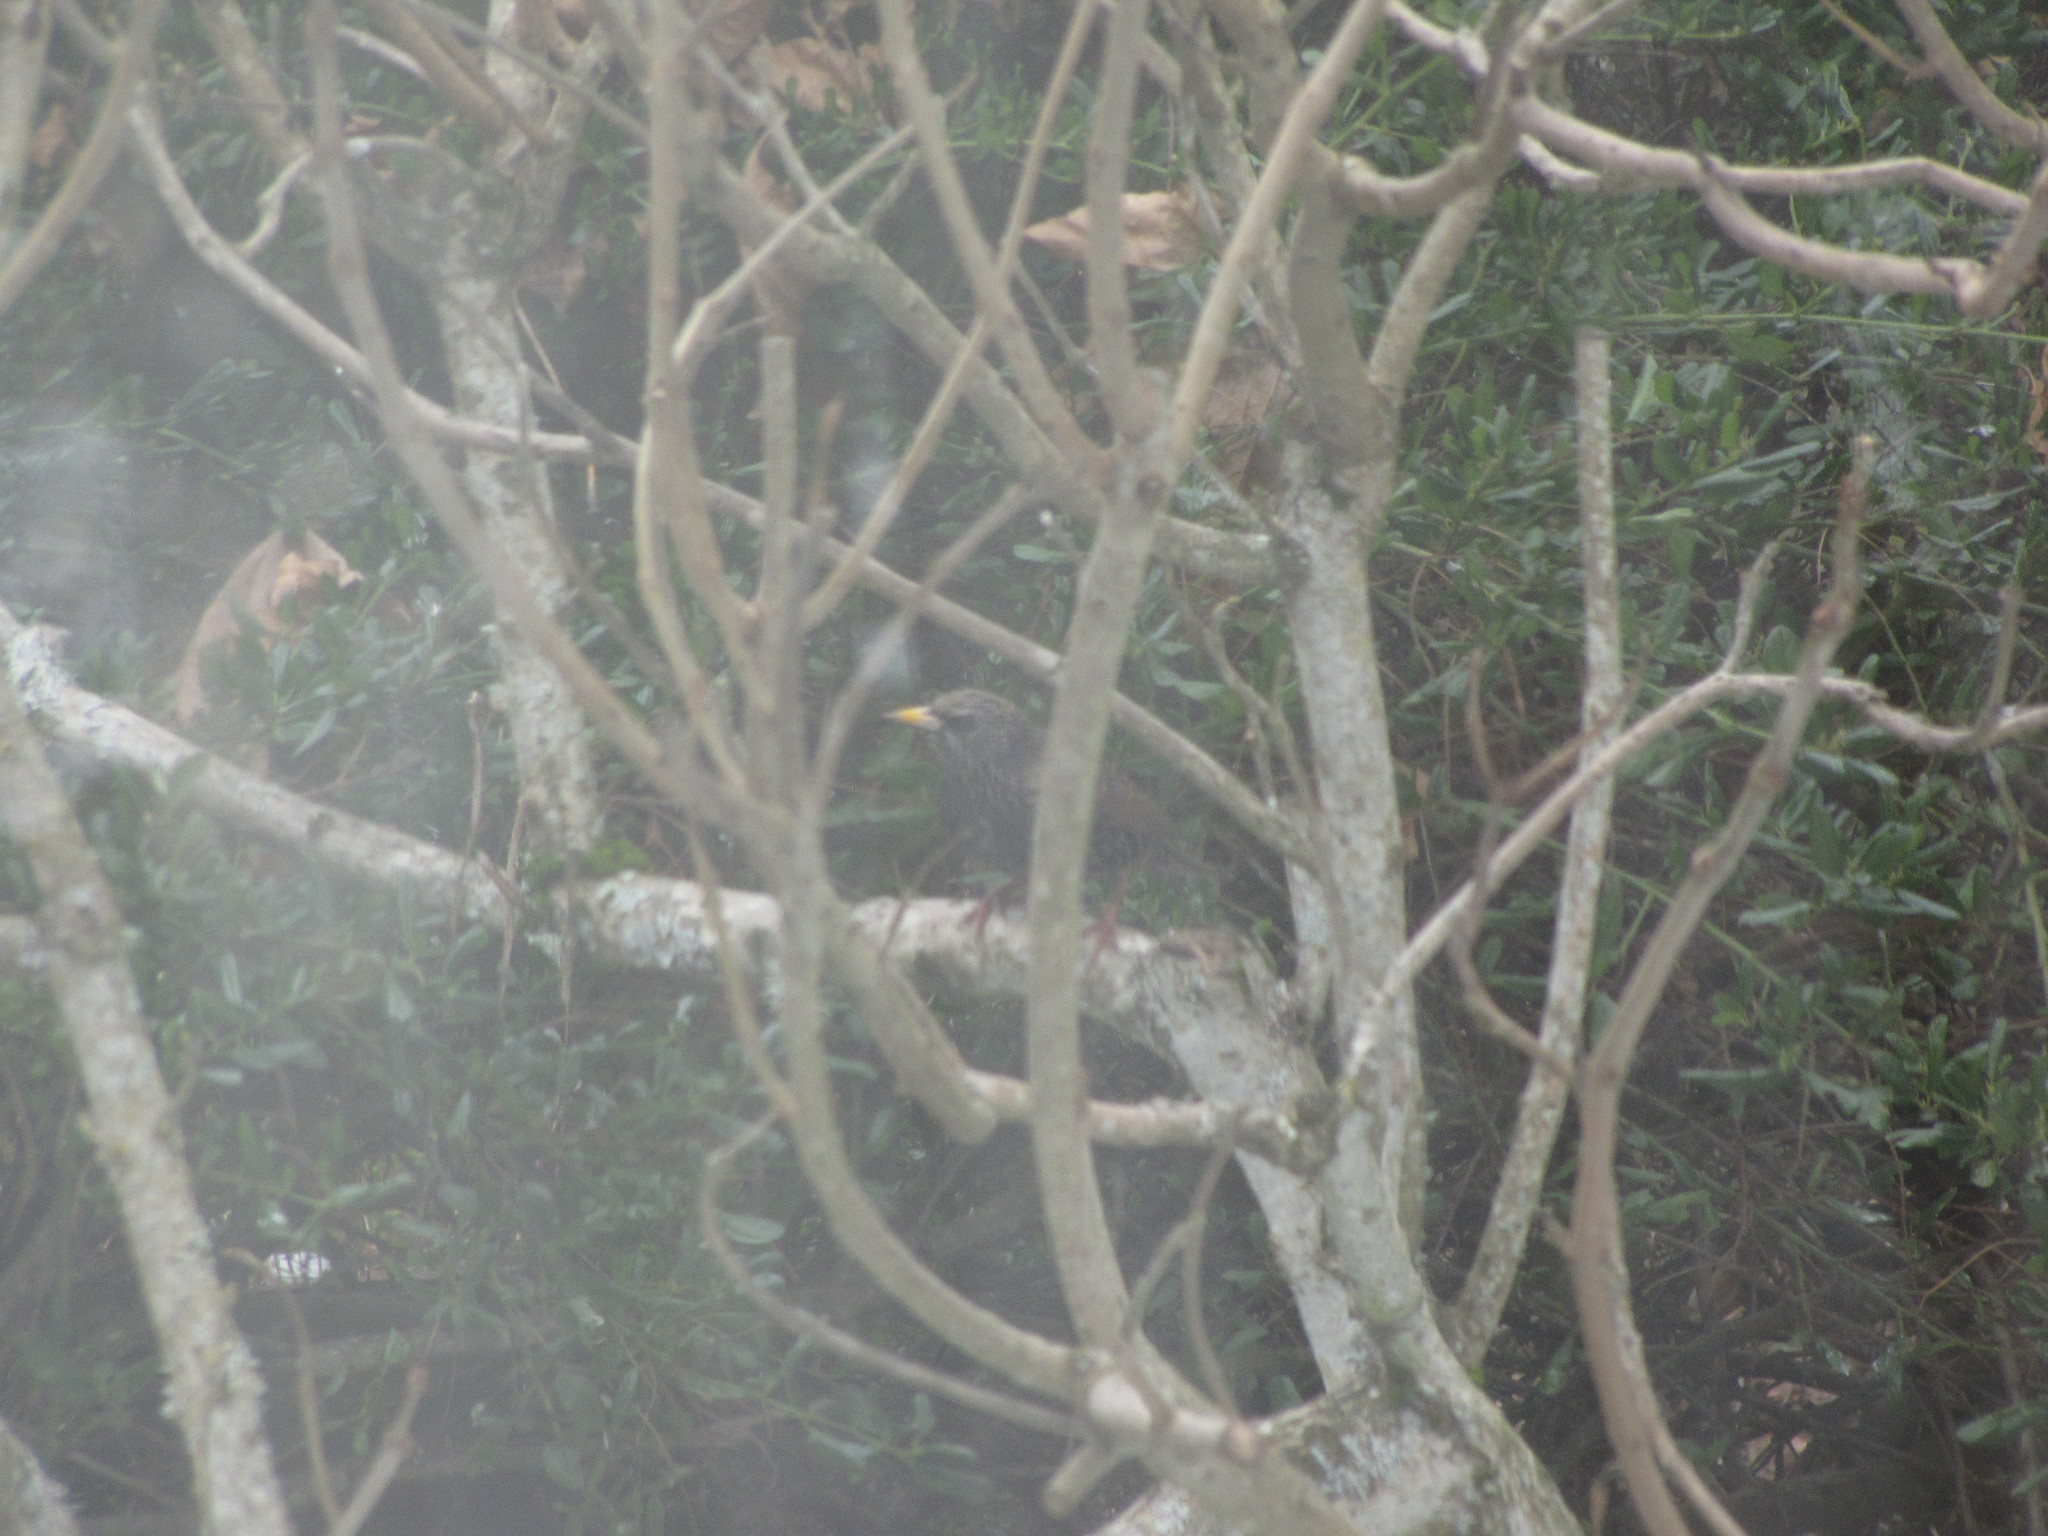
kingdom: Animalia
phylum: Chordata
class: Aves
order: Passeriformes
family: Sturnidae
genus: Sturnus
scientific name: Sturnus vulgaris
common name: Common starling
